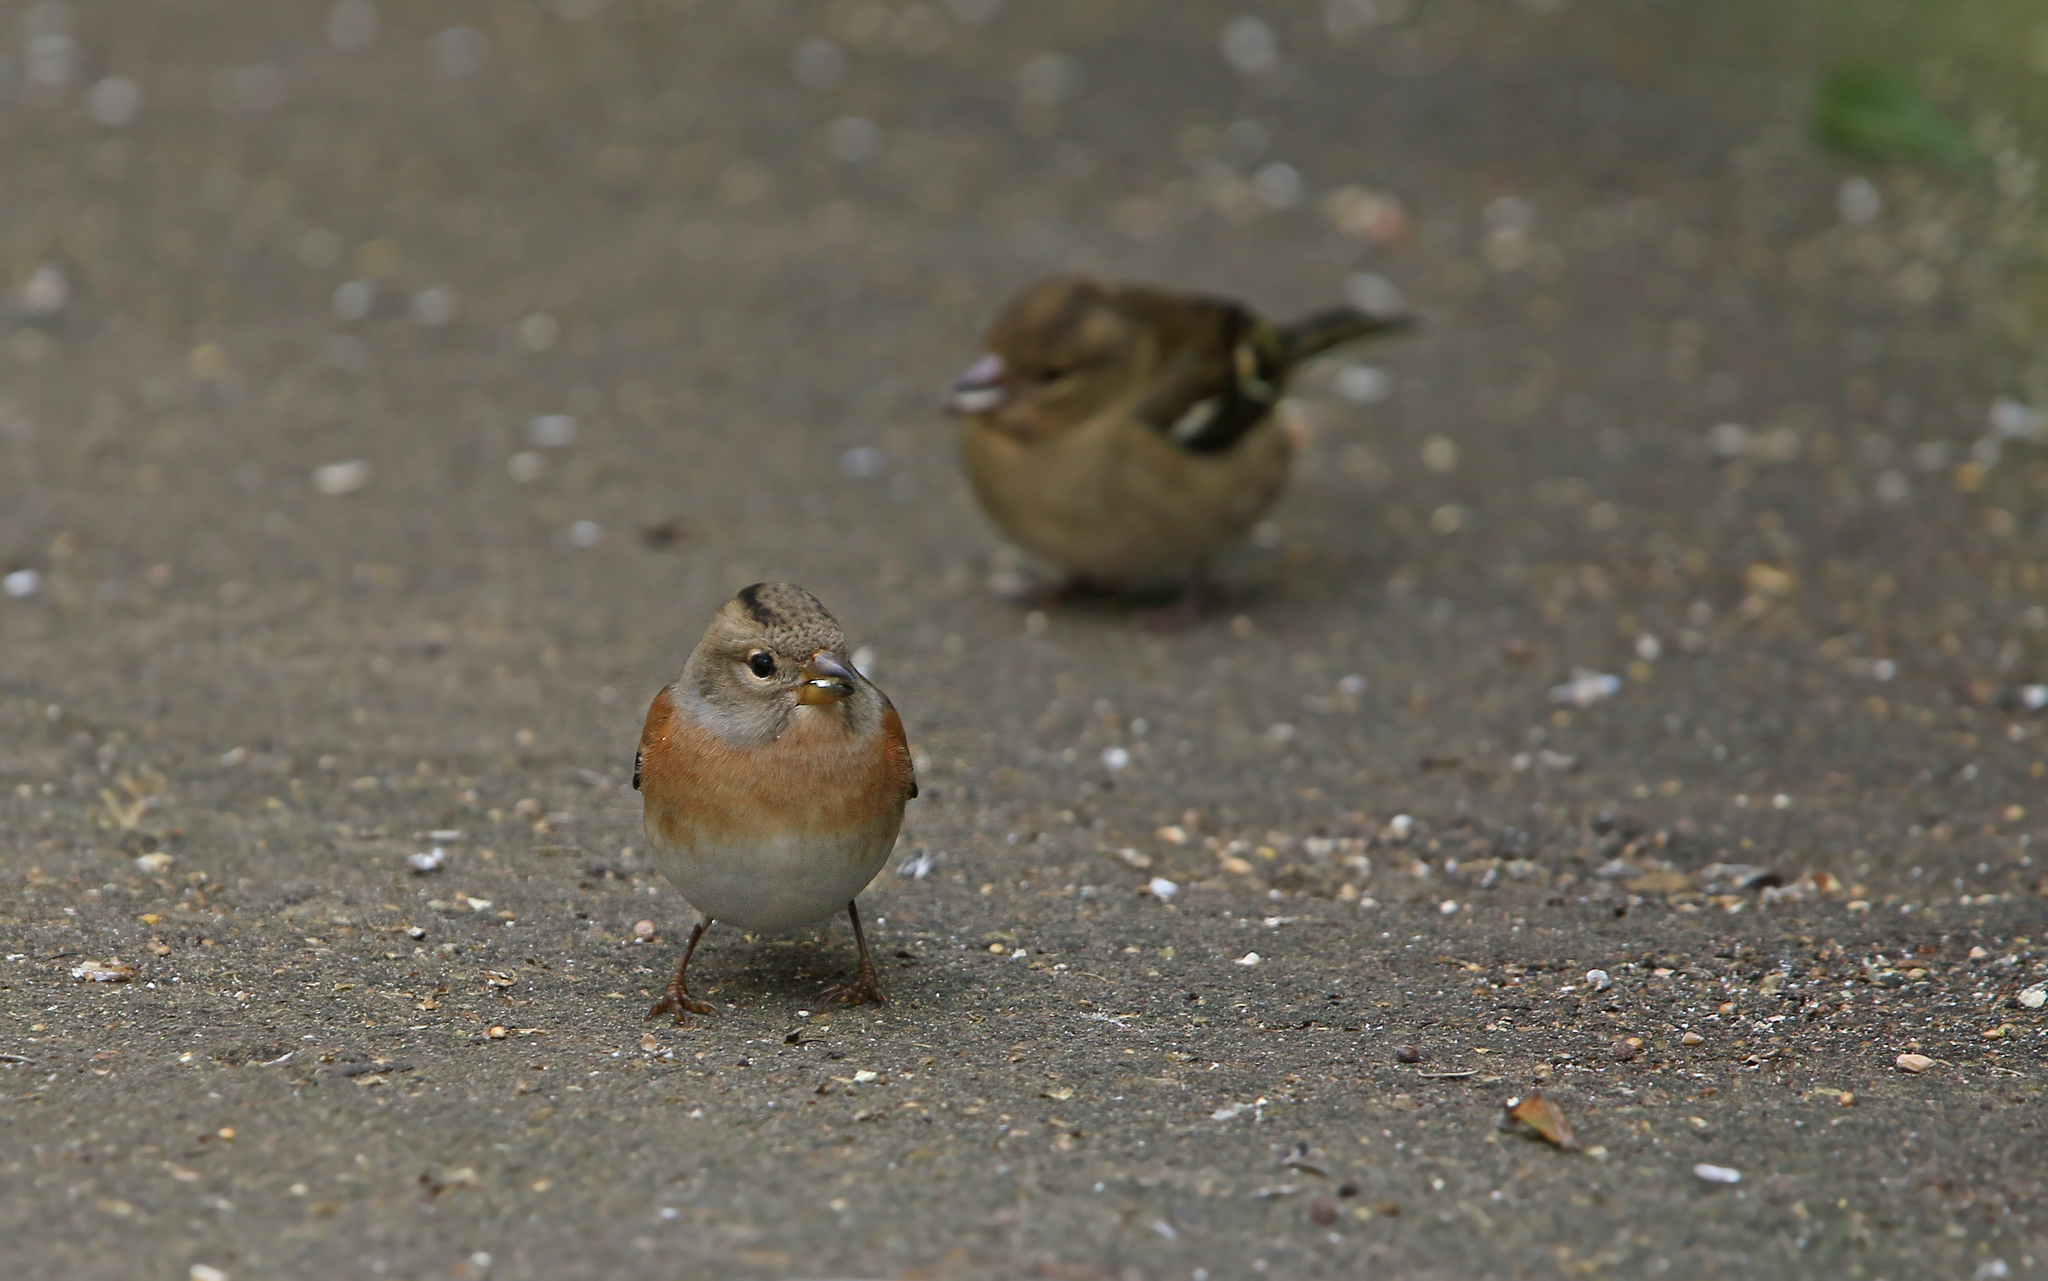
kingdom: Animalia
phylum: Chordata
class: Aves
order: Passeriformes
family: Fringillidae
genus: Fringilla
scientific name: Fringilla montifringilla
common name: Brambling
